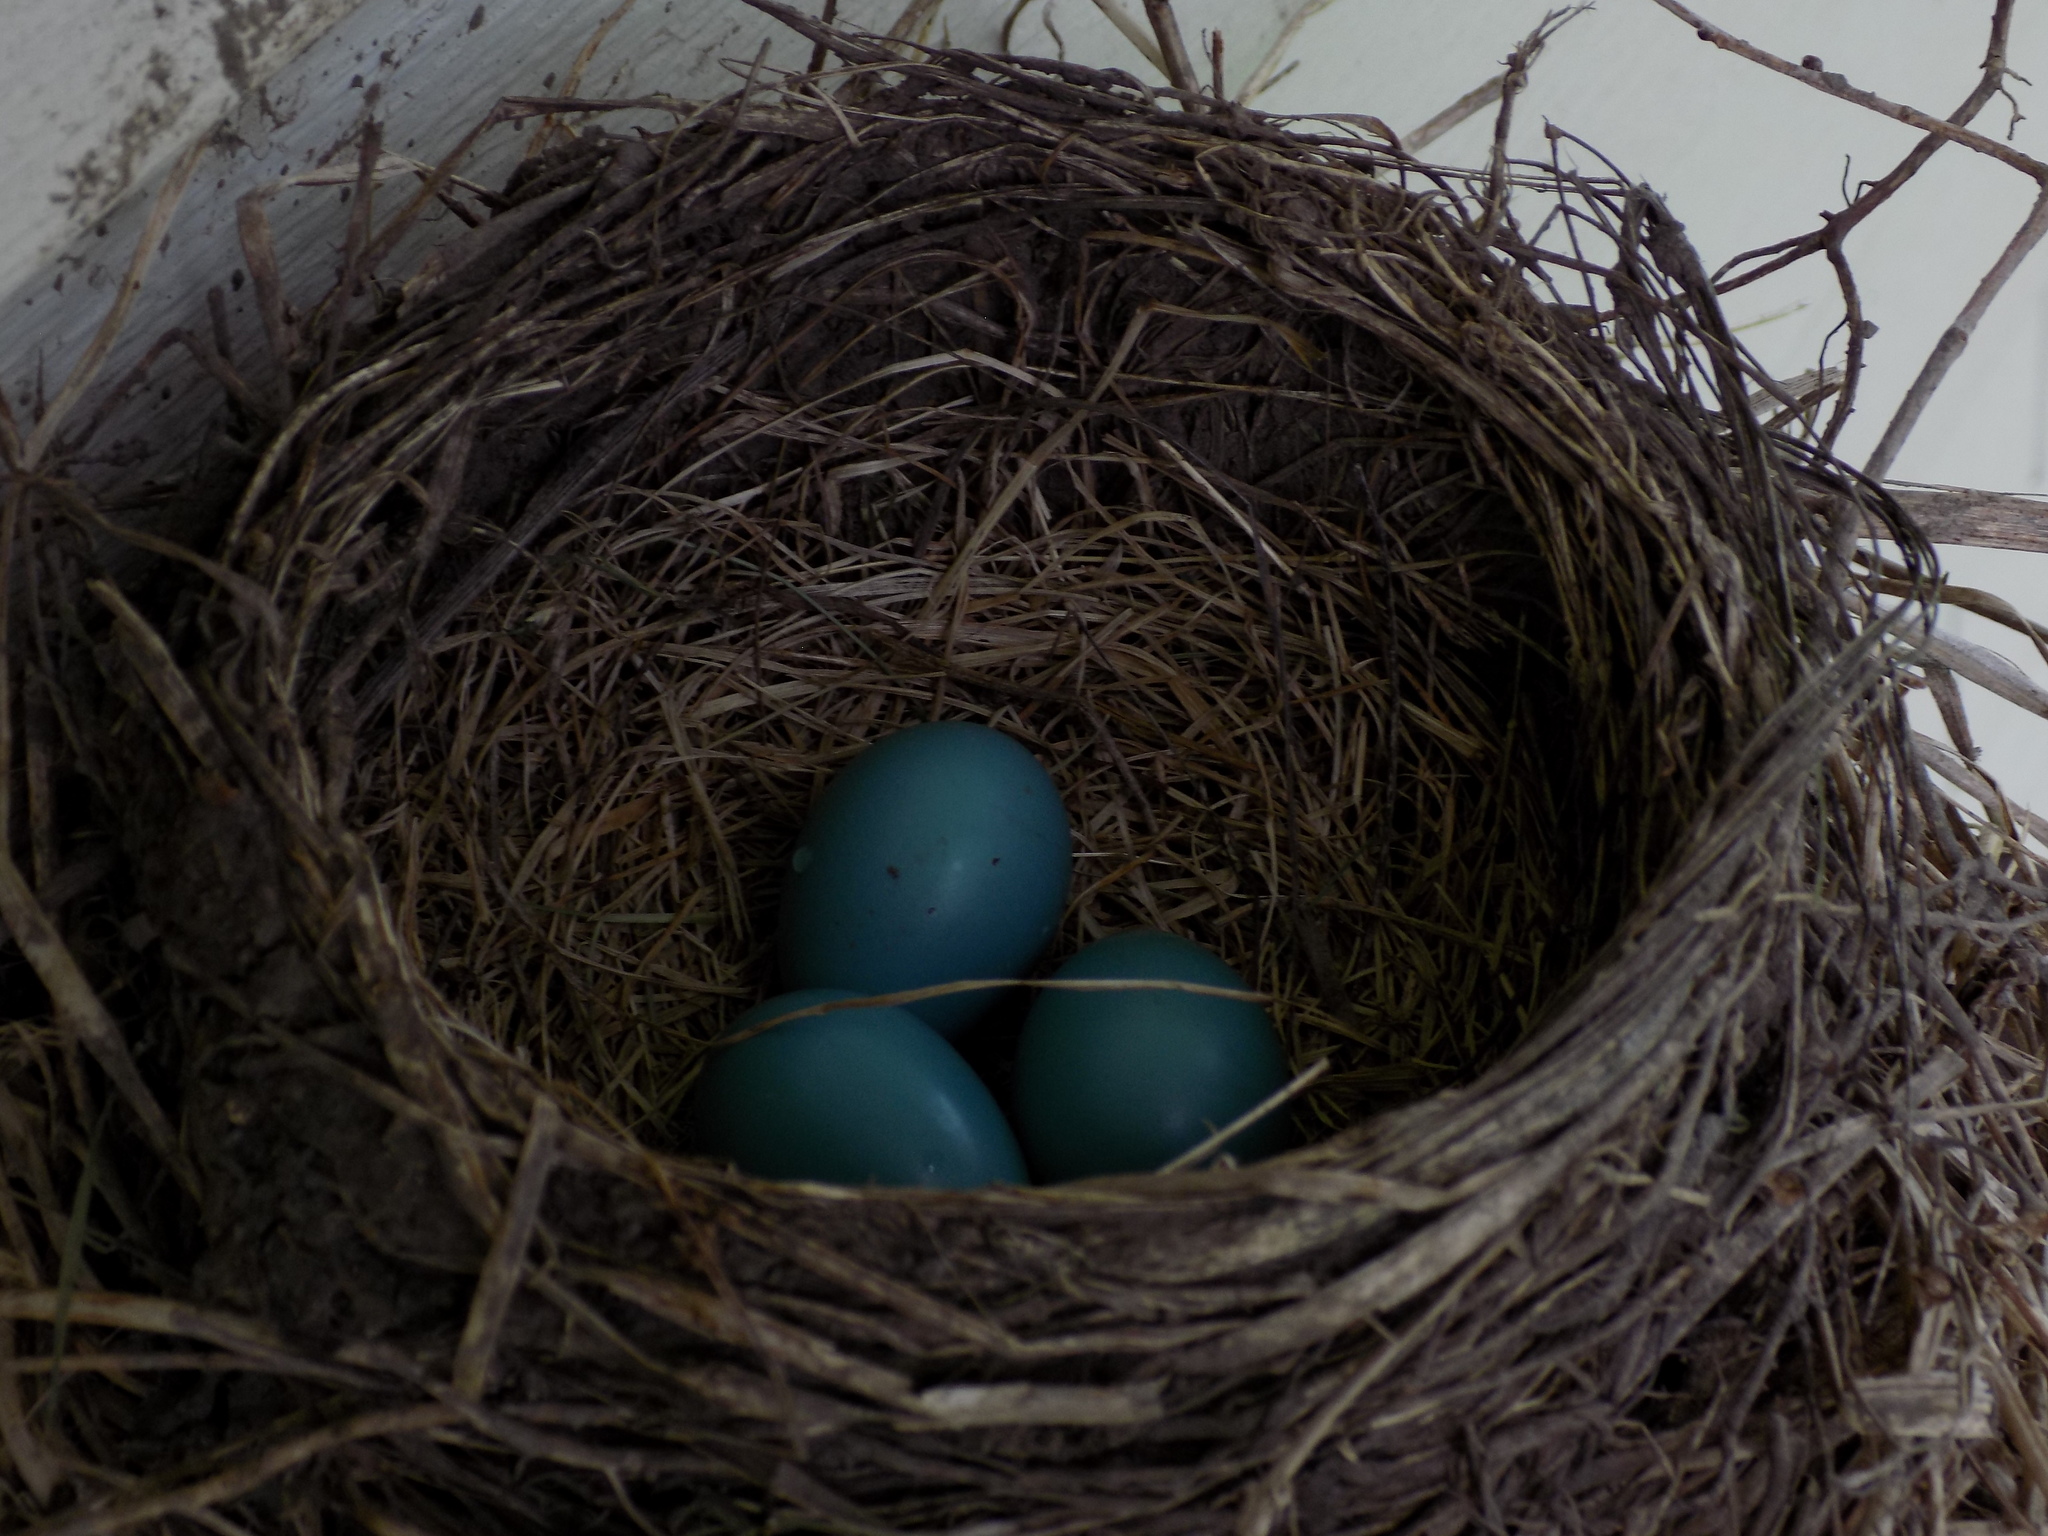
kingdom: Animalia
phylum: Chordata
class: Aves
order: Passeriformes
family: Turdidae
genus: Turdus
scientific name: Turdus migratorius
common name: American robin
